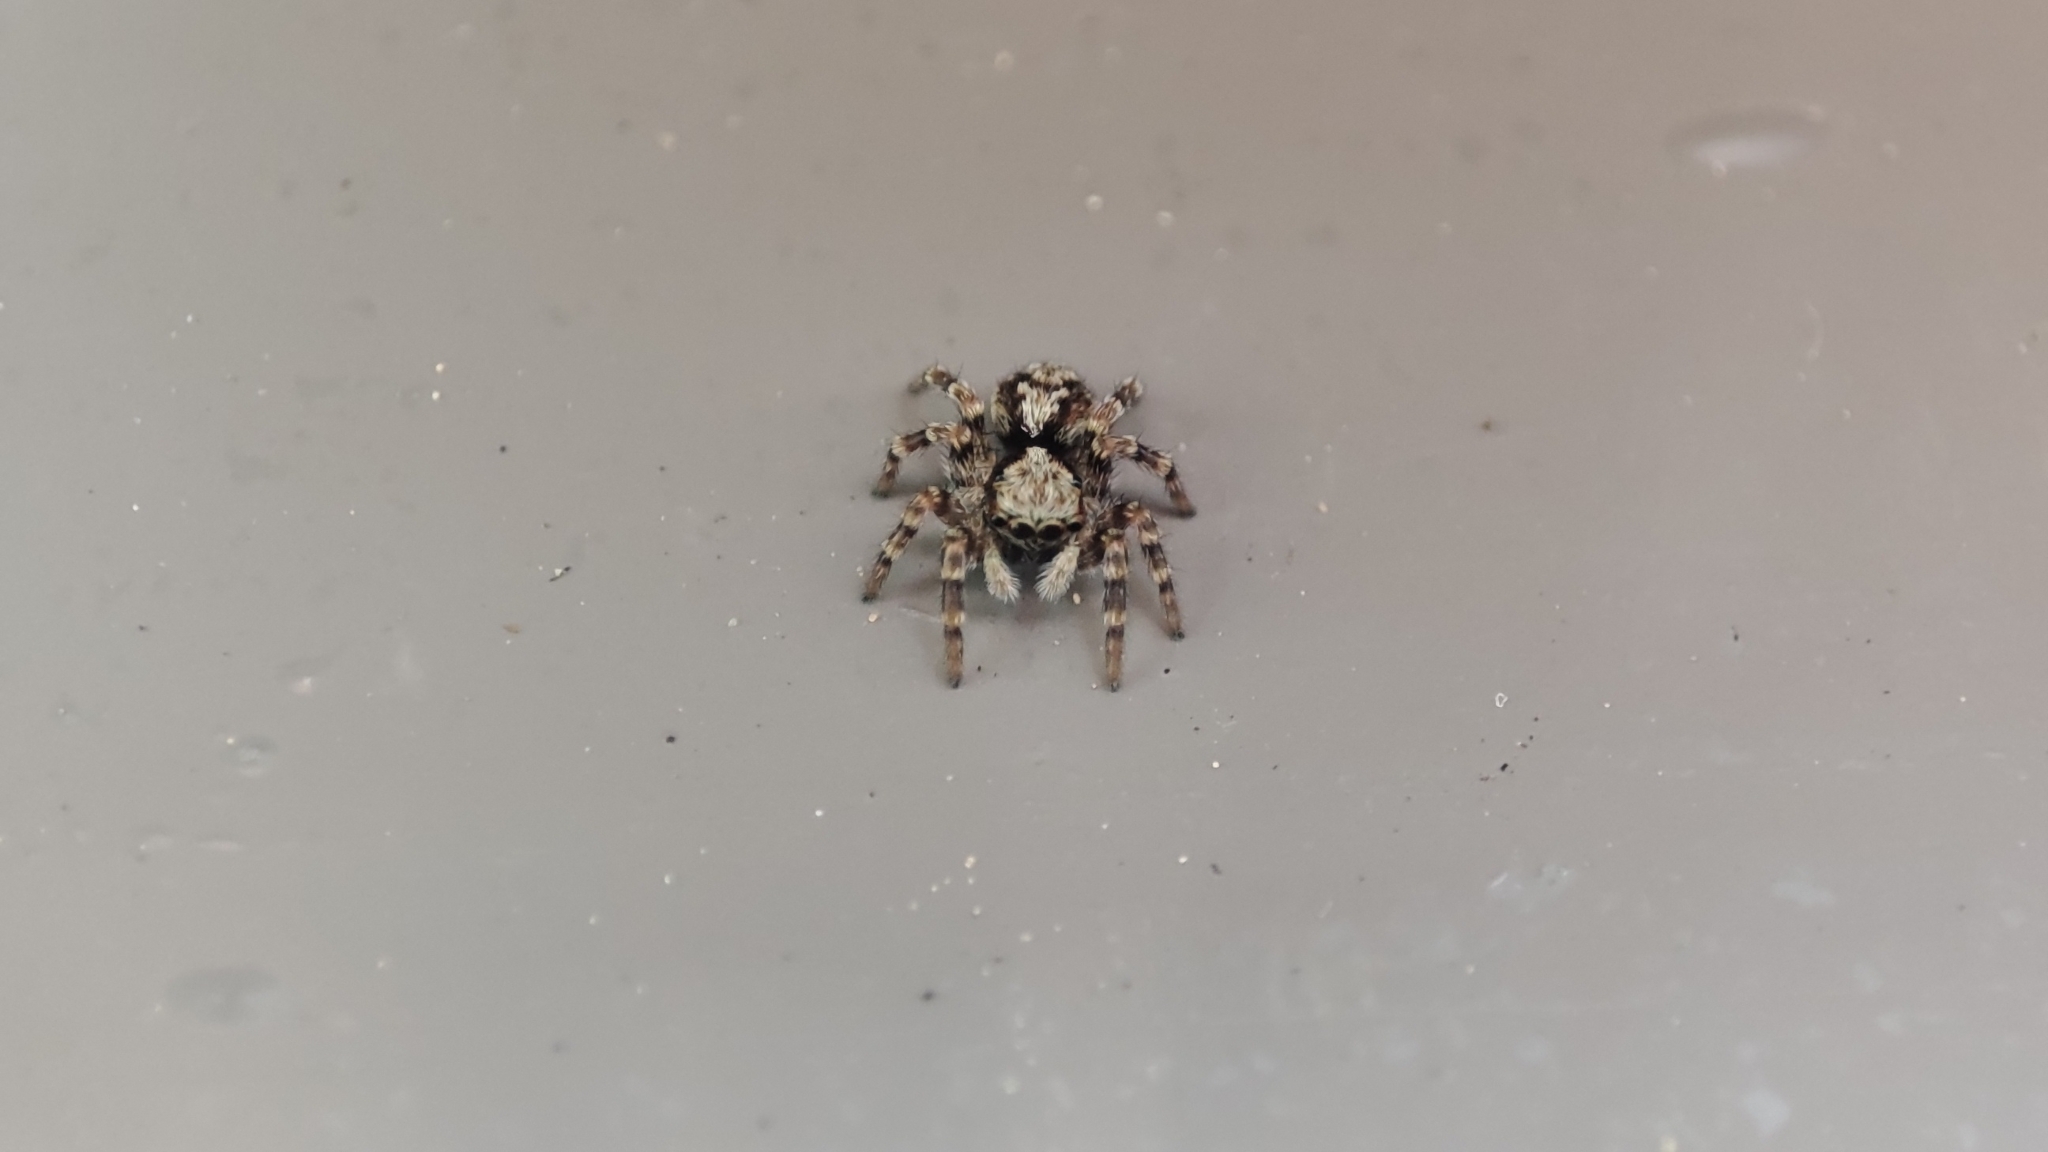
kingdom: Animalia
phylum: Arthropoda
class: Arachnida
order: Araneae
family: Salticidae
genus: Pseudeuophrys
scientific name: Pseudeuophrys lanigera
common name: Jumping spider
